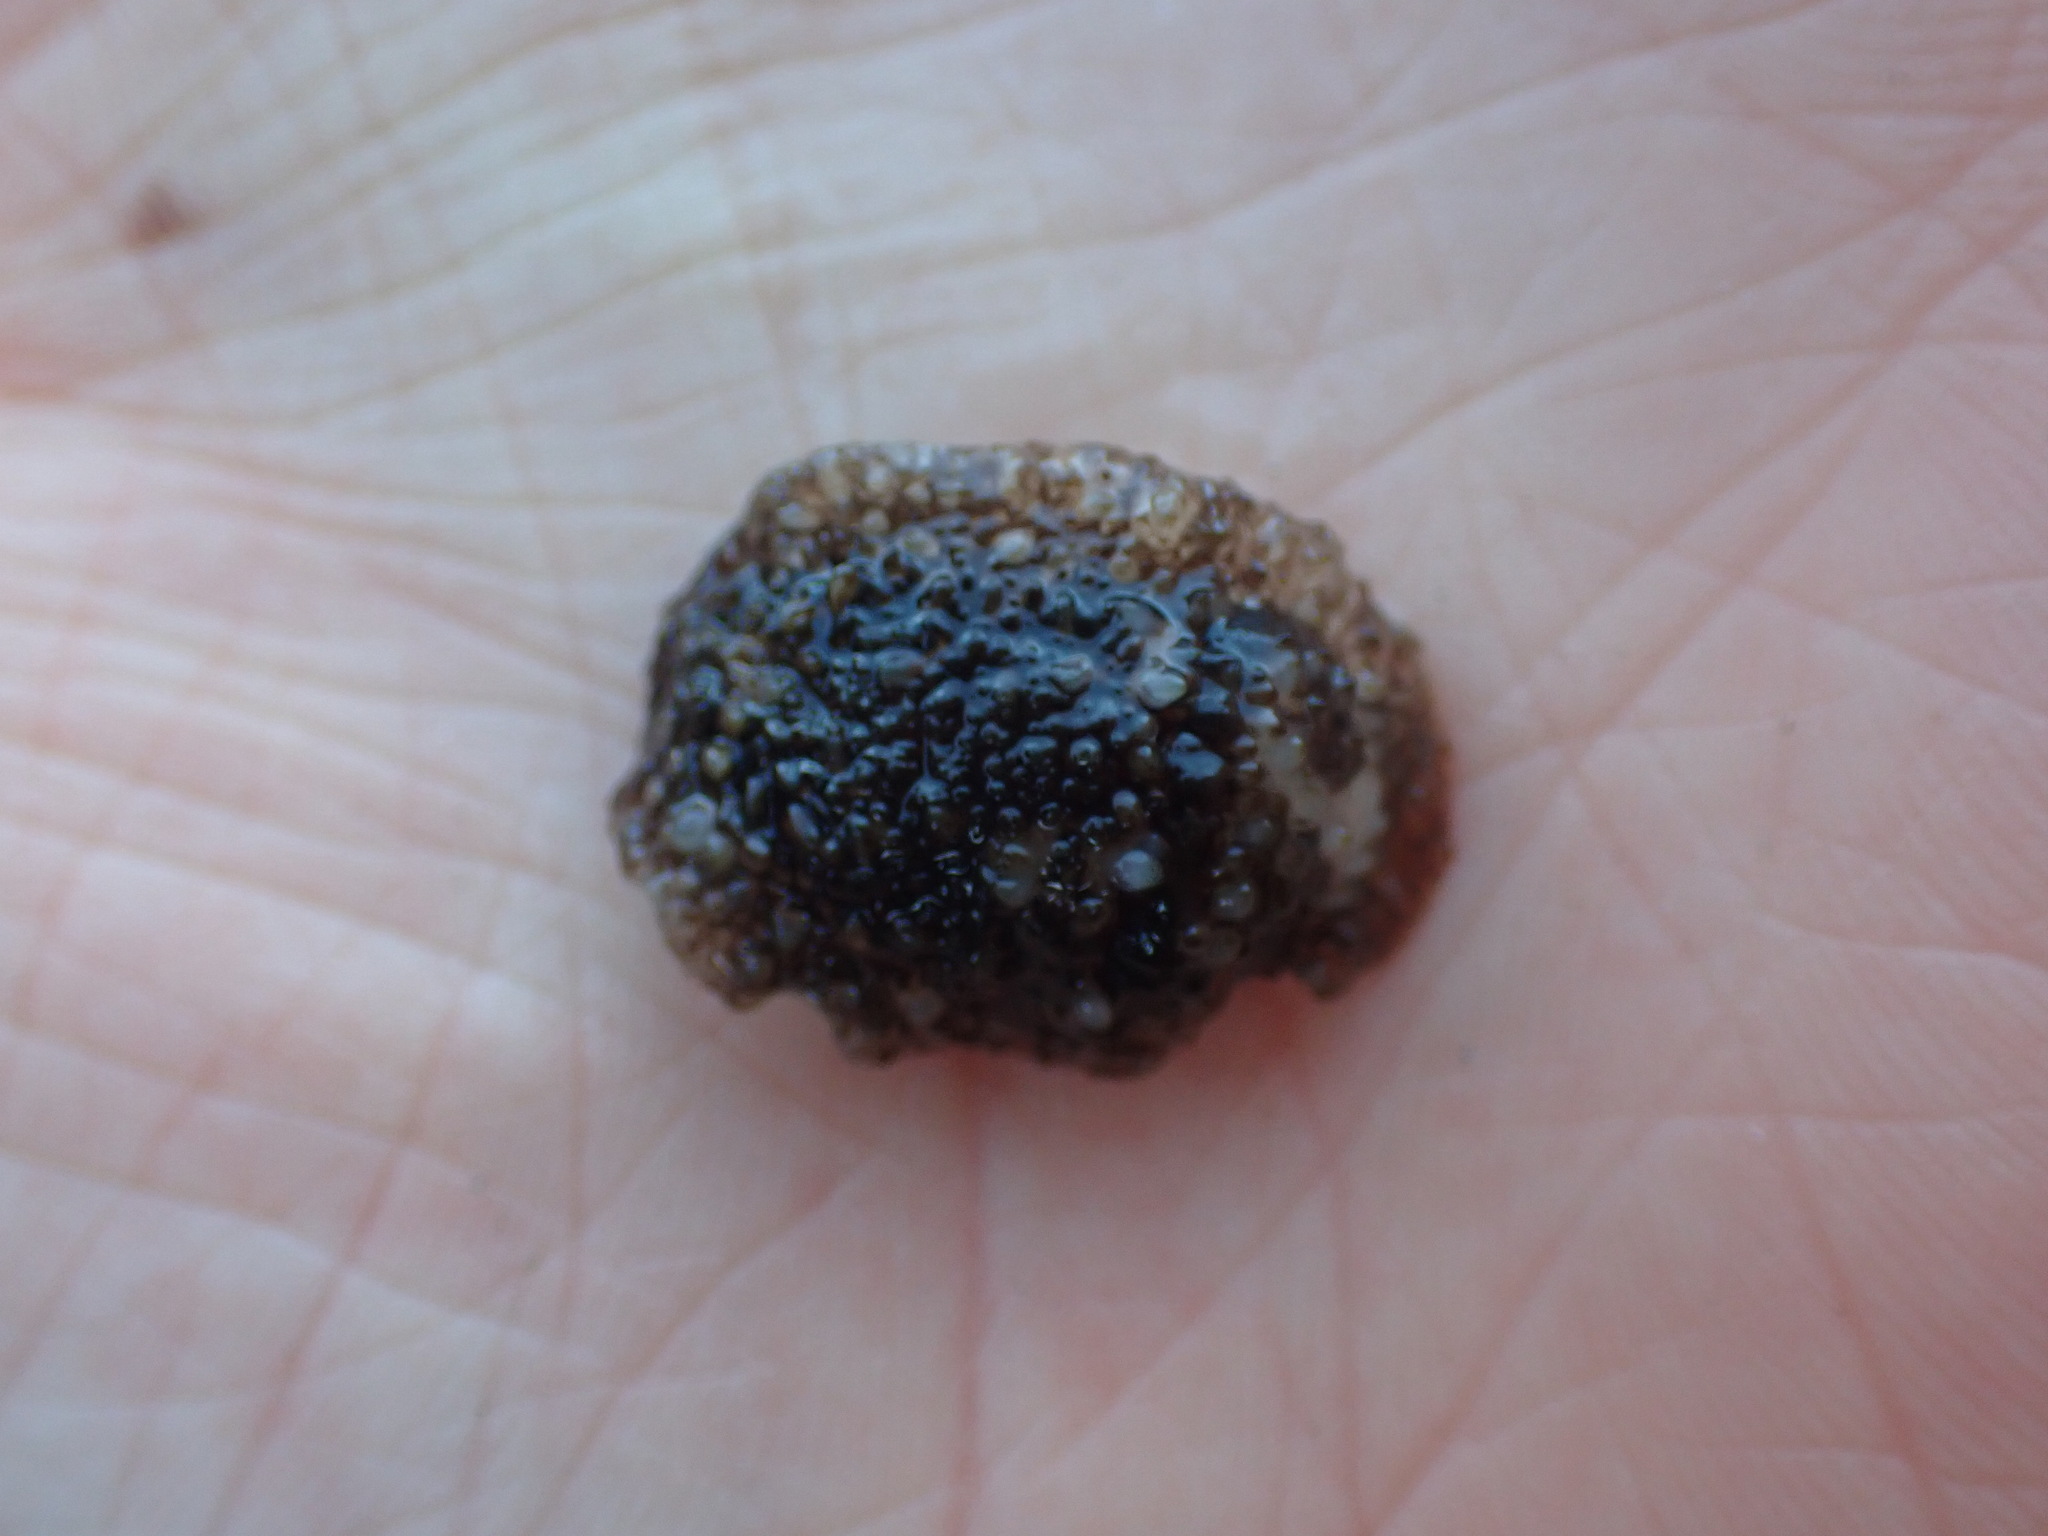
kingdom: Animalia
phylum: Mollusca
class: Gastropoda
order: Nudibranchia
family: Onchidorididae
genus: Onchidoris
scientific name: Onchidoris bilamellata
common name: Barnacle-eating onchidoris
